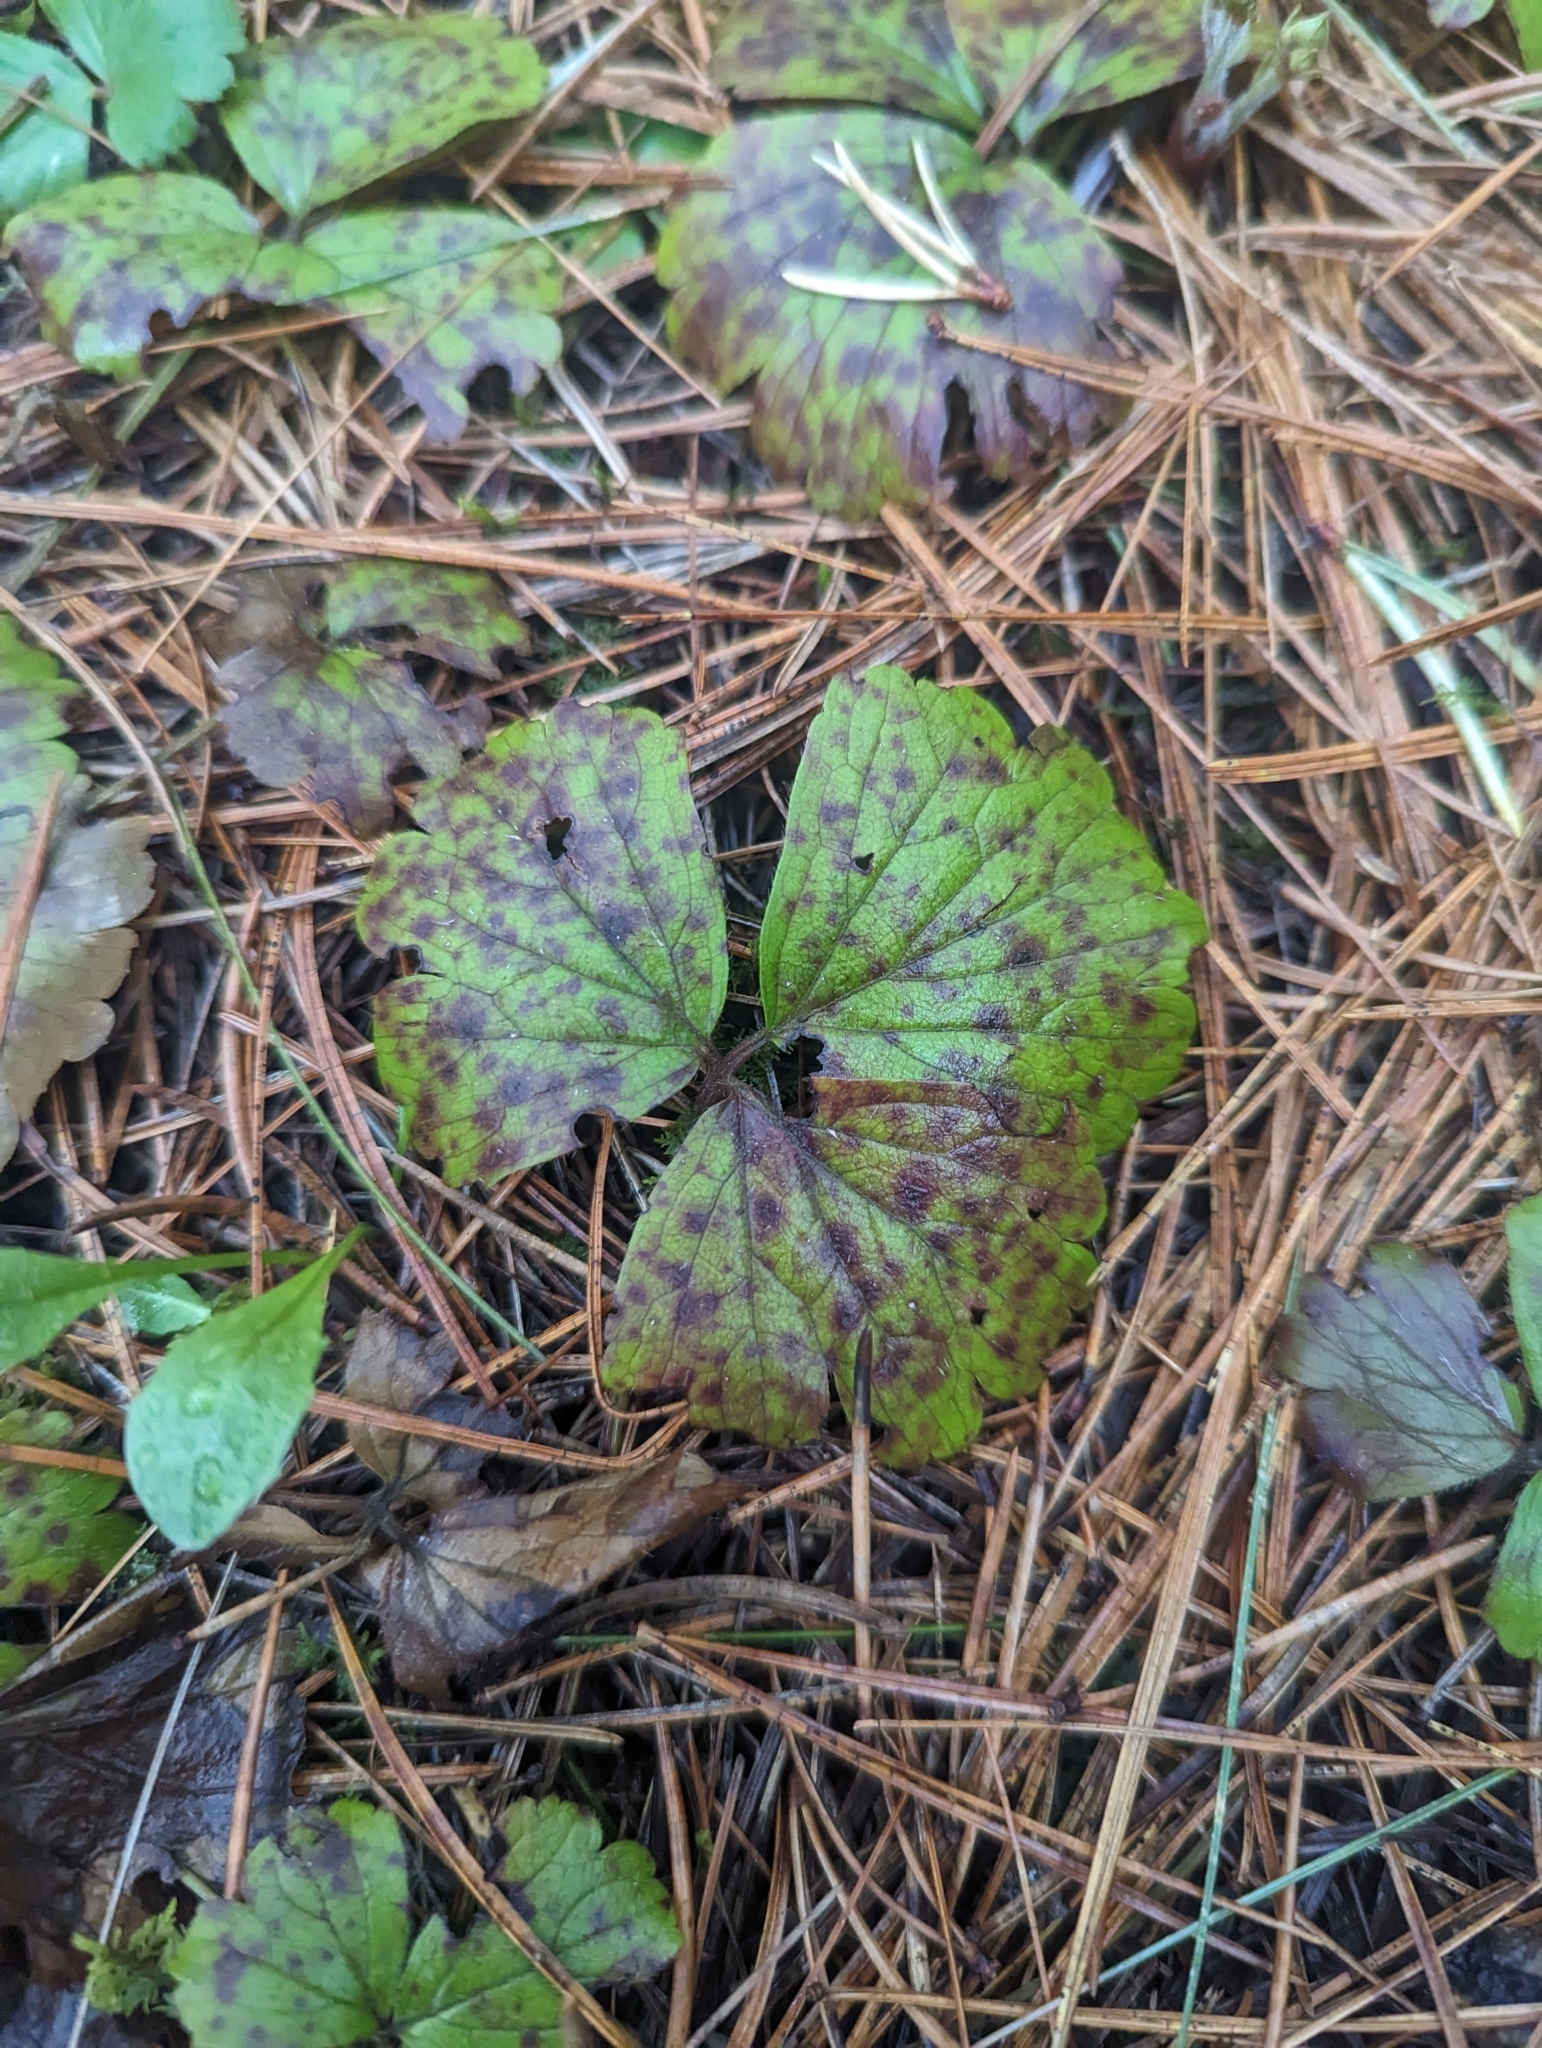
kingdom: Plantae
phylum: Tracheophyta
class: Magnoliopsida
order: Rosales
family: Rosaceae
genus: Geum
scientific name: Geum fragarioides
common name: Appalachian barren strawberry
